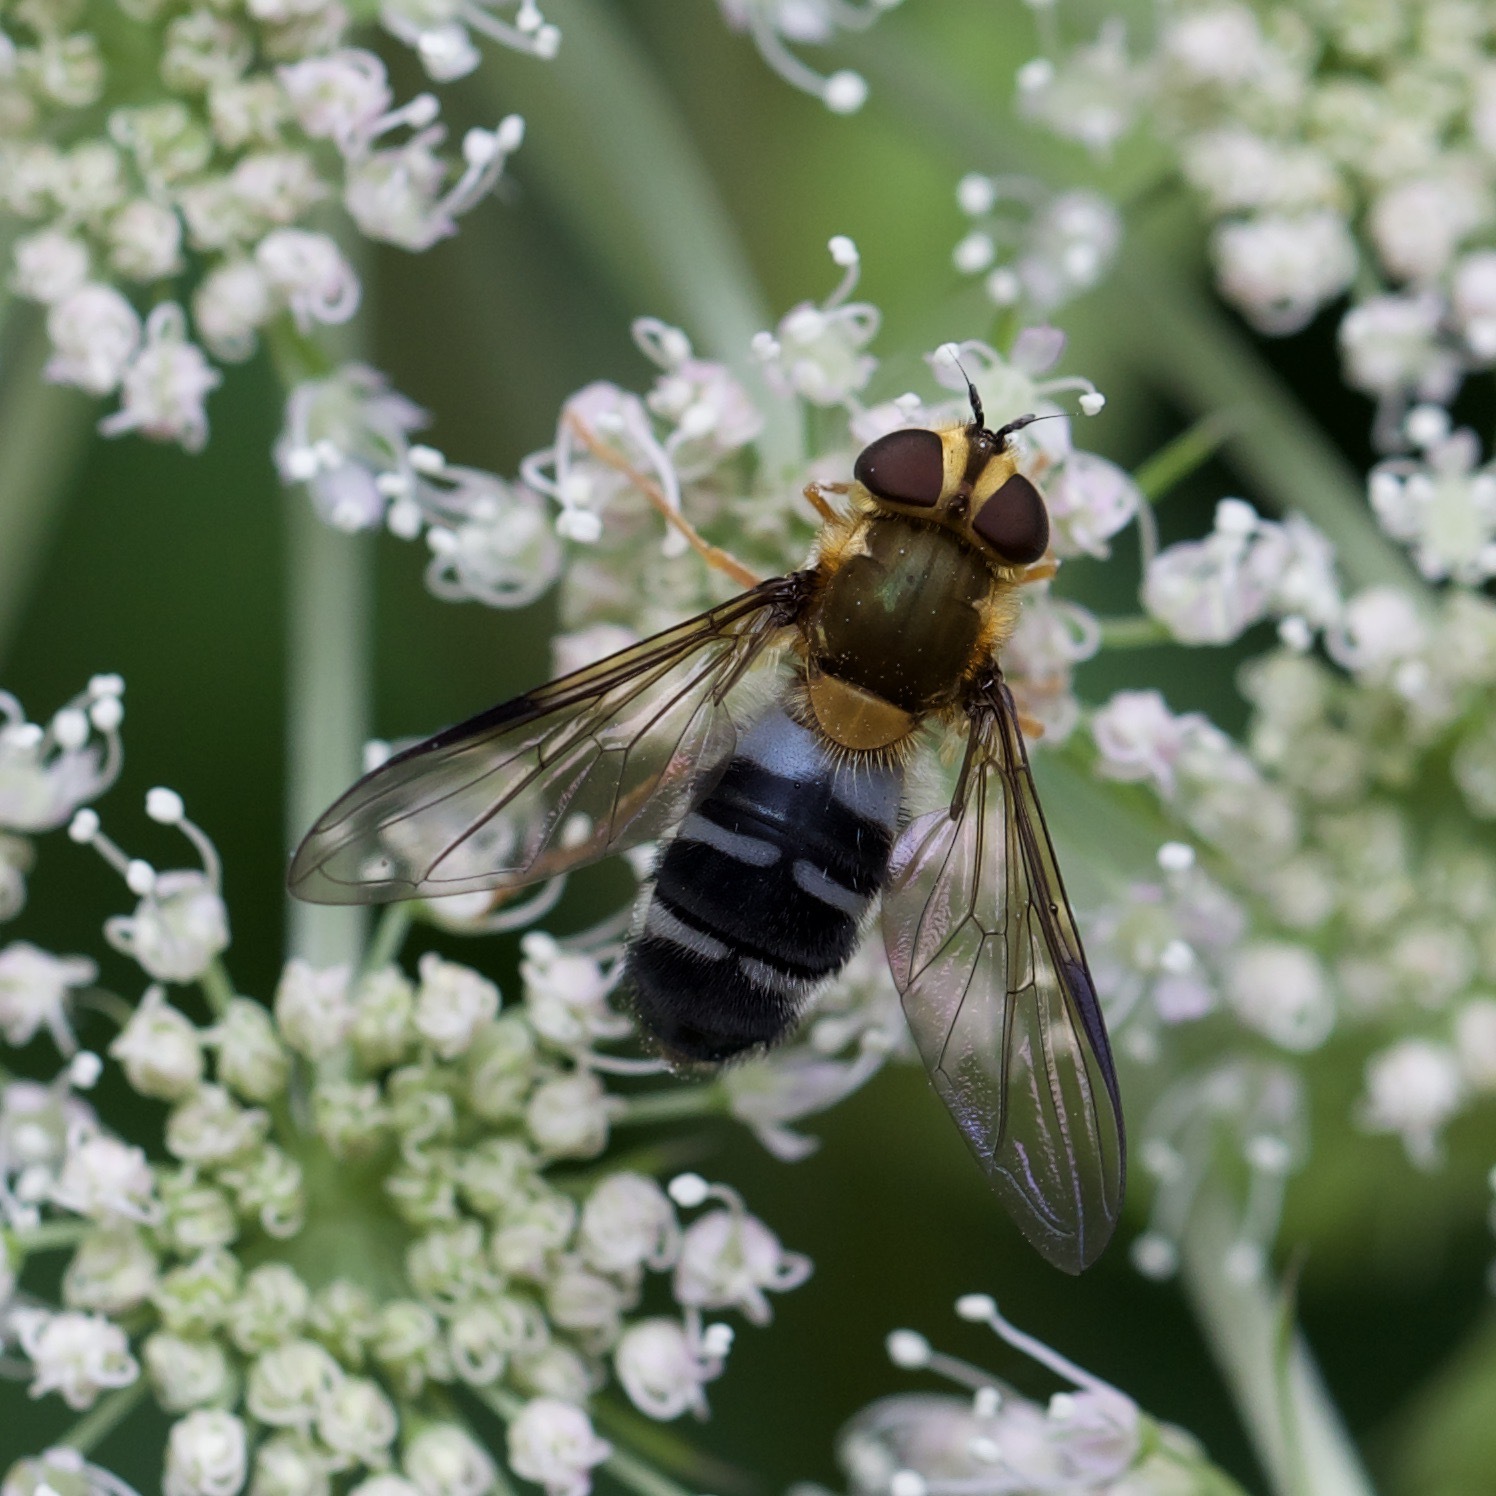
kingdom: Animalia
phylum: Arthropoda
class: Insecta
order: Diptera
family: Syrphidae
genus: Leucozona
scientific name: Leucozona glaucia
